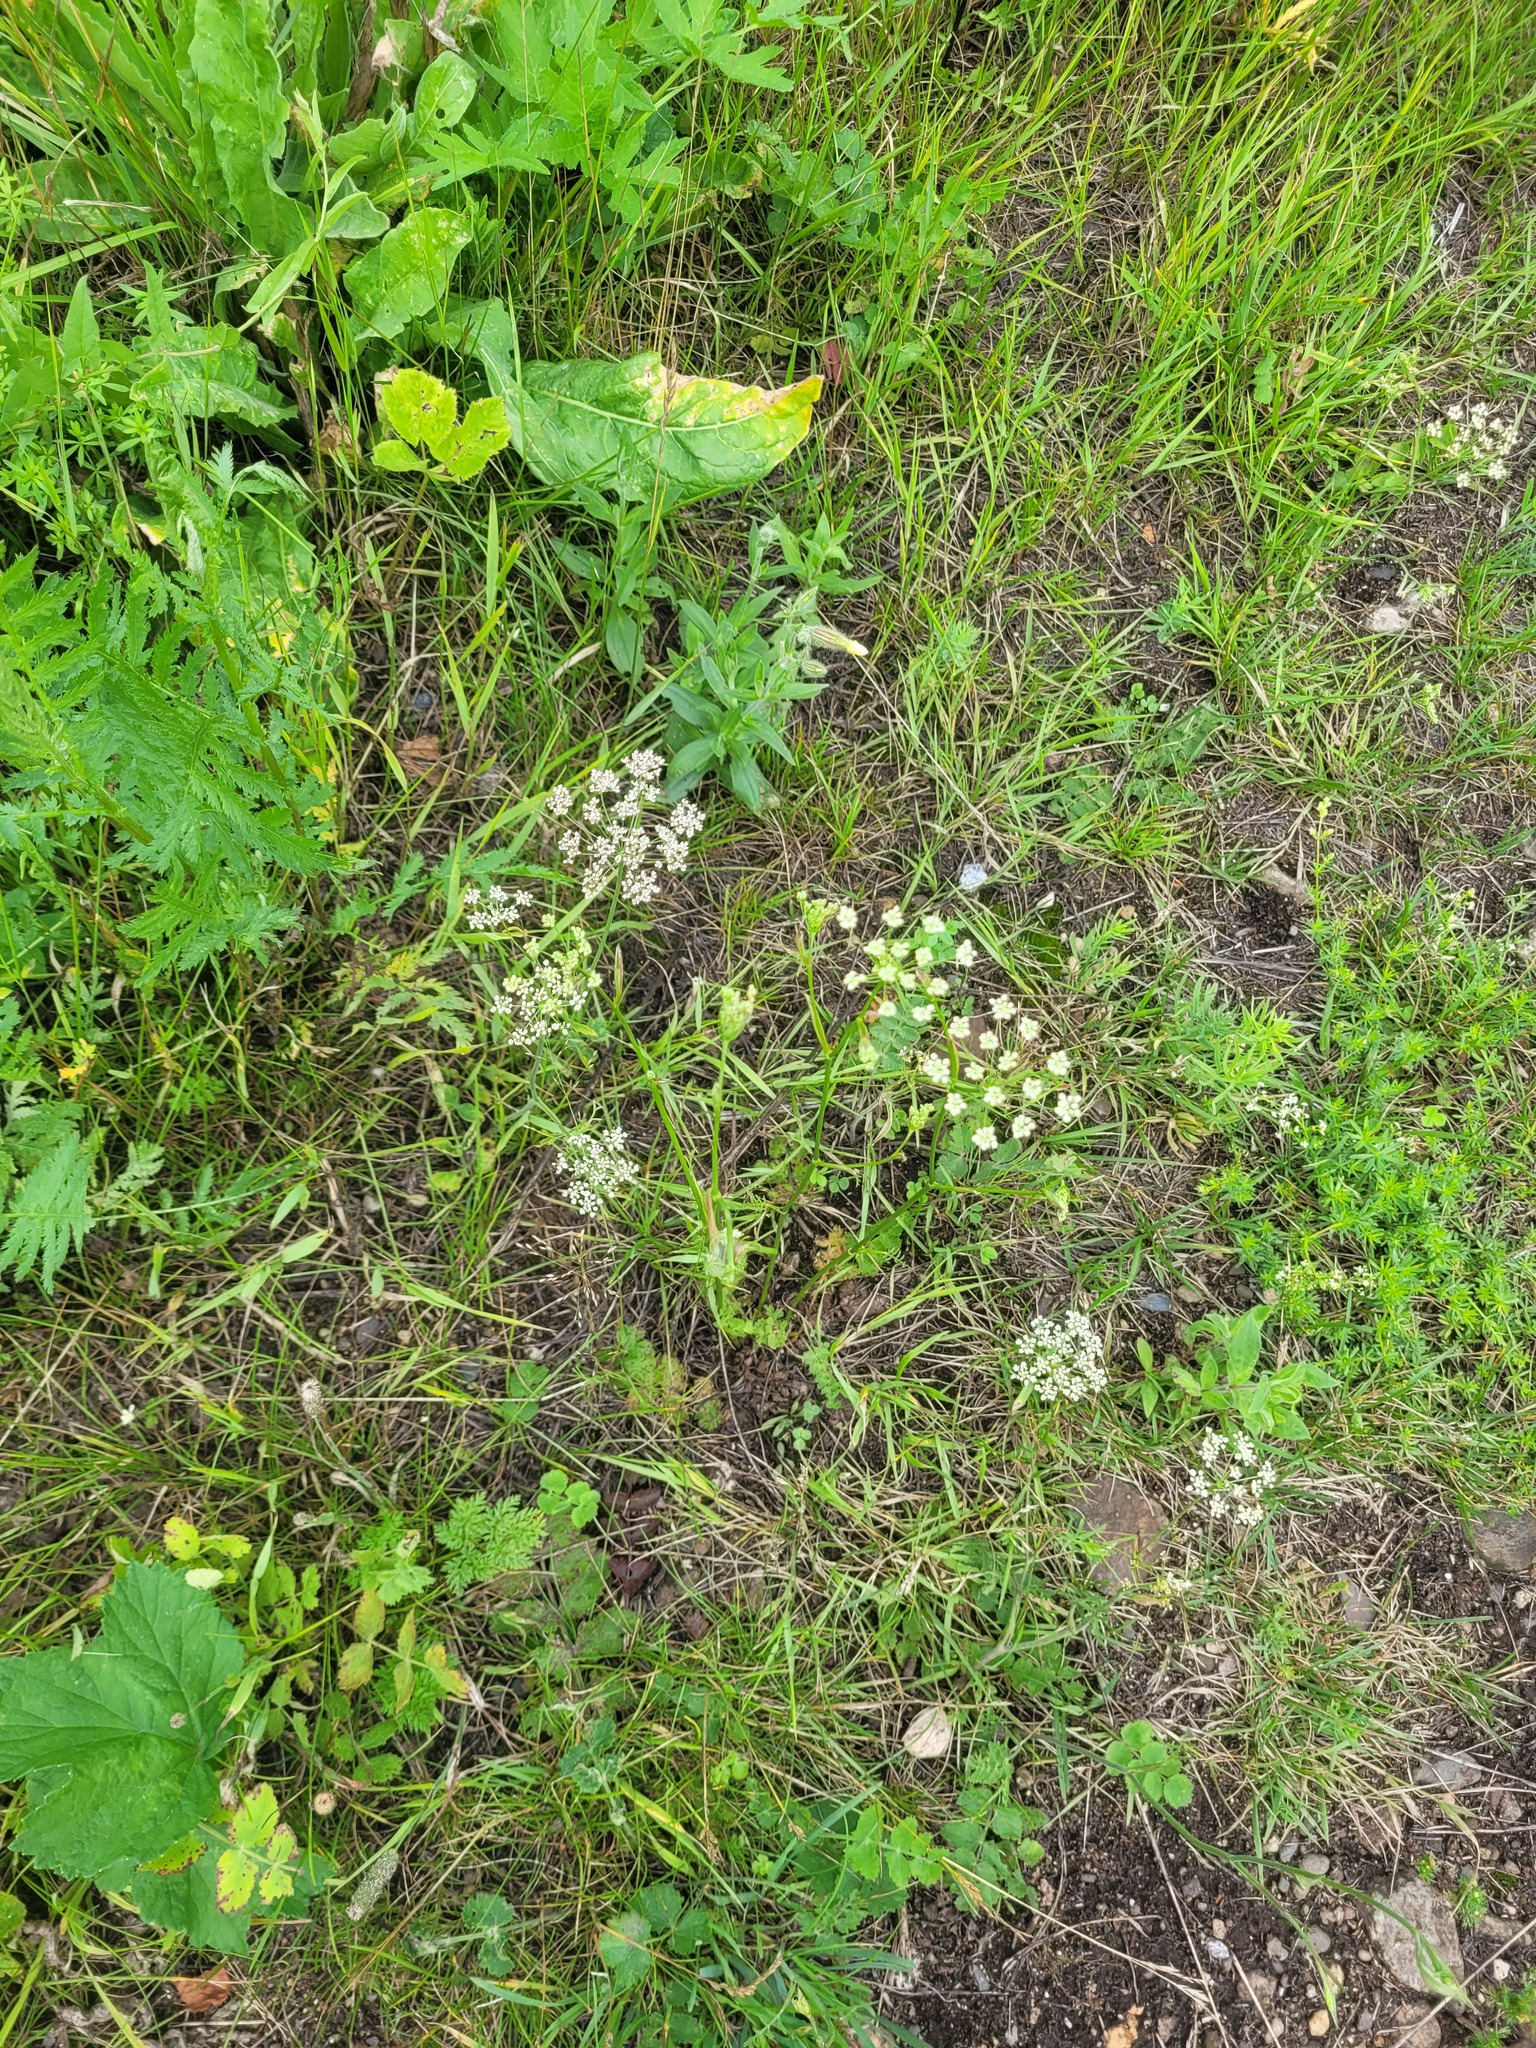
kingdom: Plantae
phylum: Tracheophyta
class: Magnoliopsida
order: Apiales
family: Apiaceae
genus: Pimpinella
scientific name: Pimpinella saxifraga
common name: Burnet-saxifrage
